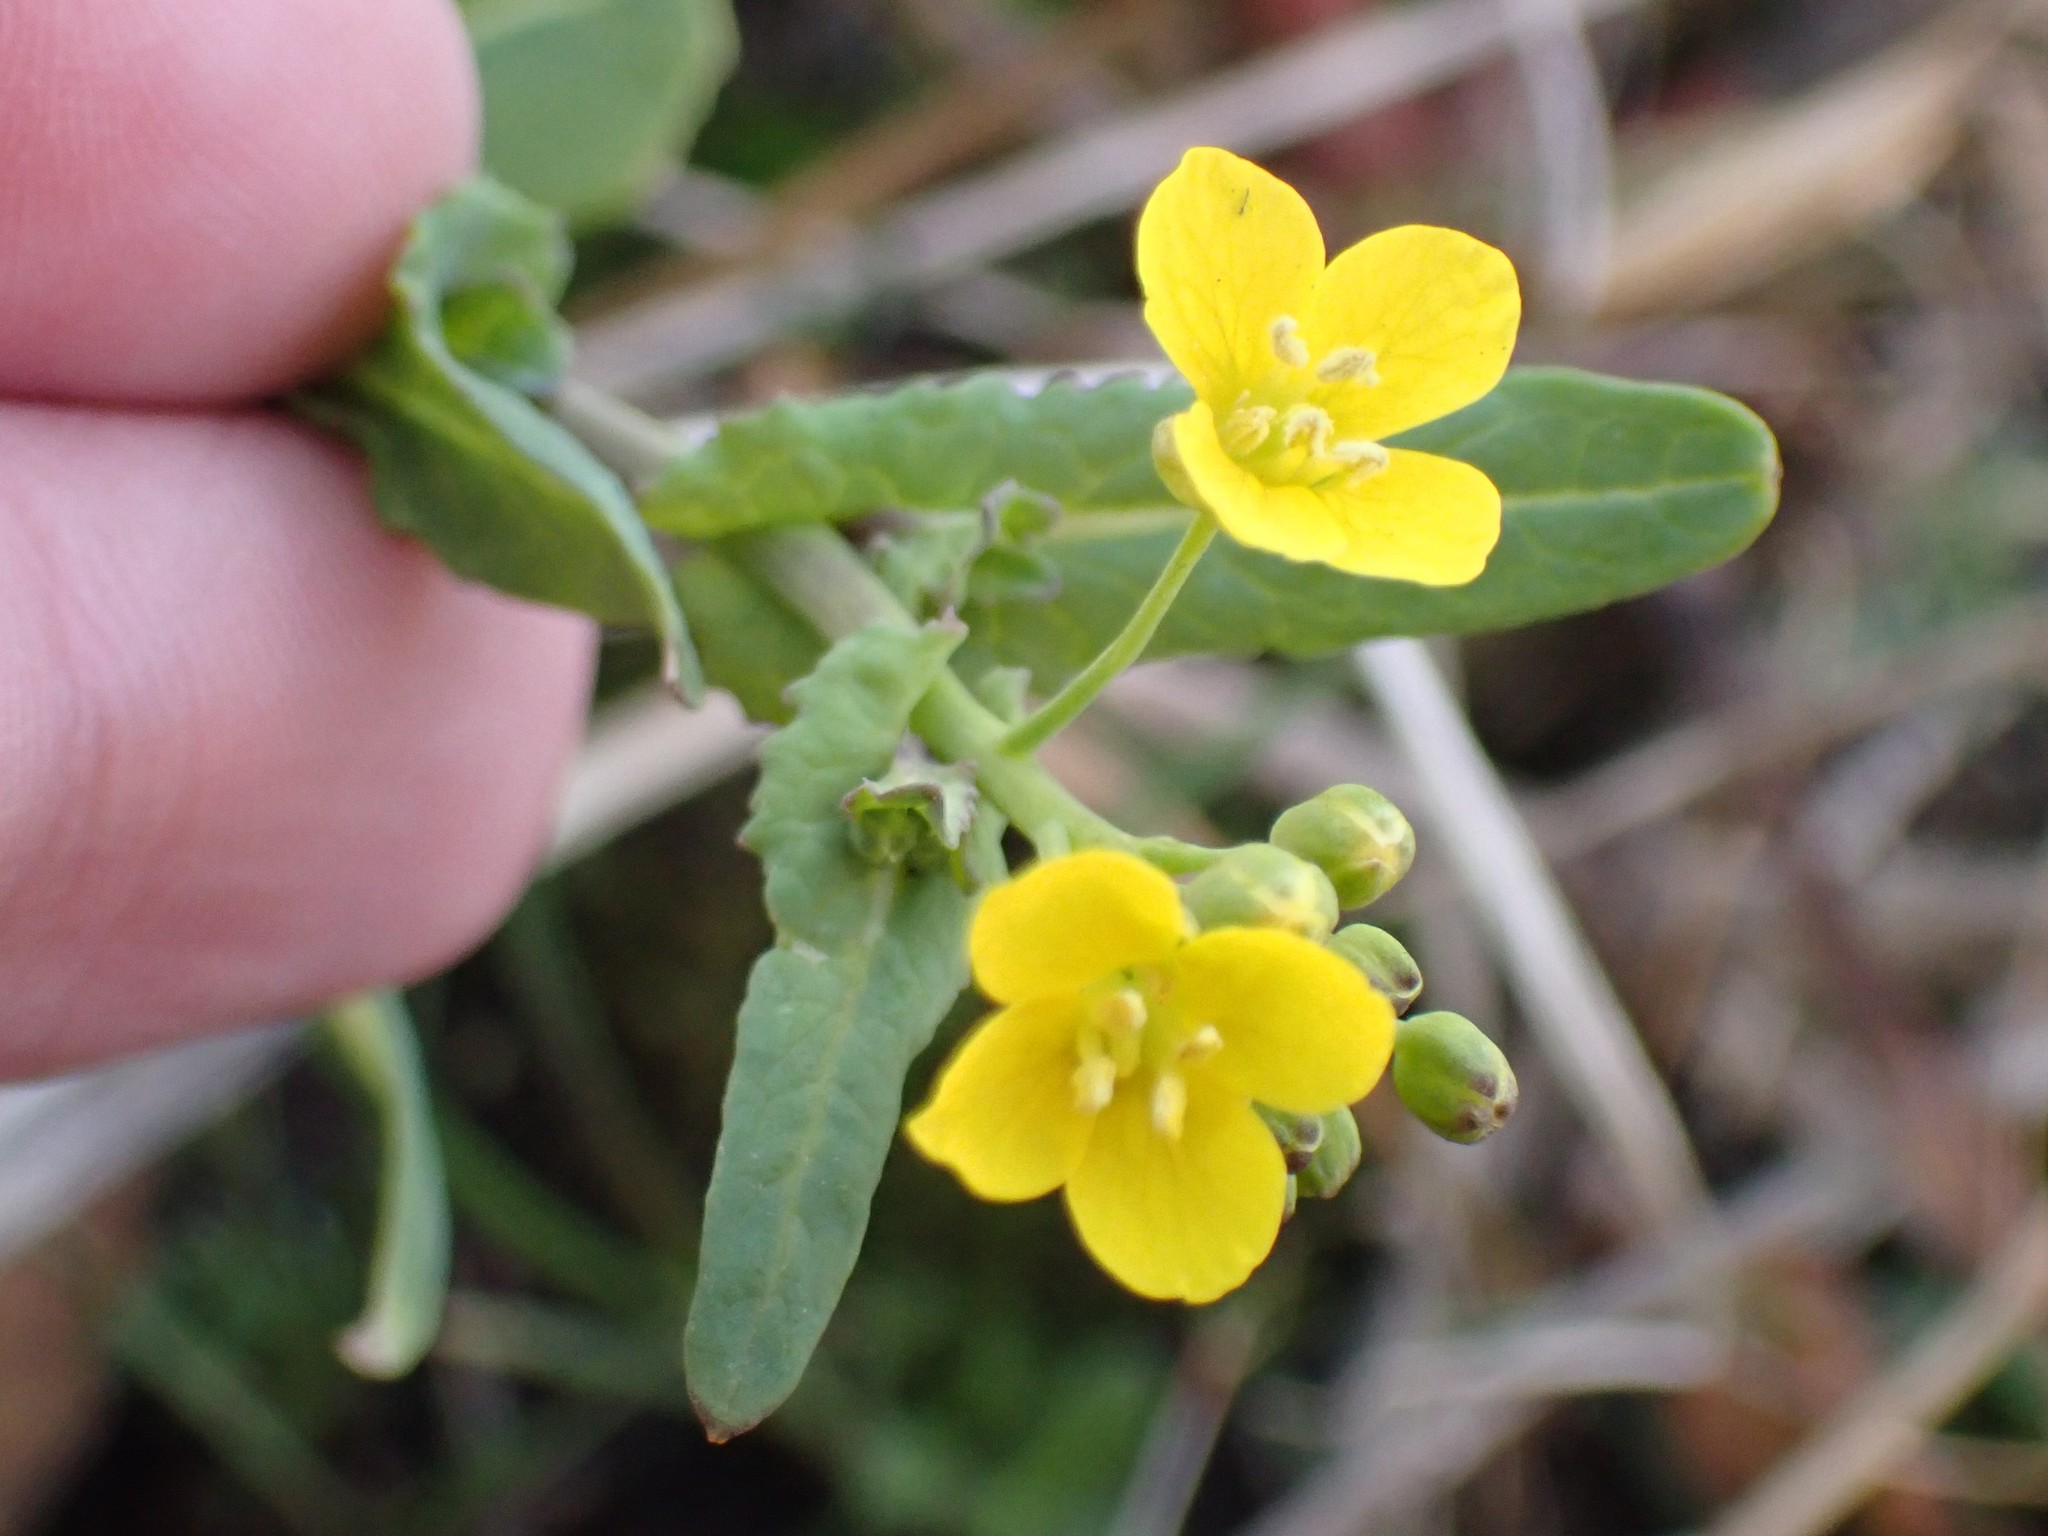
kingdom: Plantae
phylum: Tracheophyta
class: Magnoliopsida
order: Brassicales
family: Brassicaceae
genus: Brassica
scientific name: Brassica rapa
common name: Field mustard
